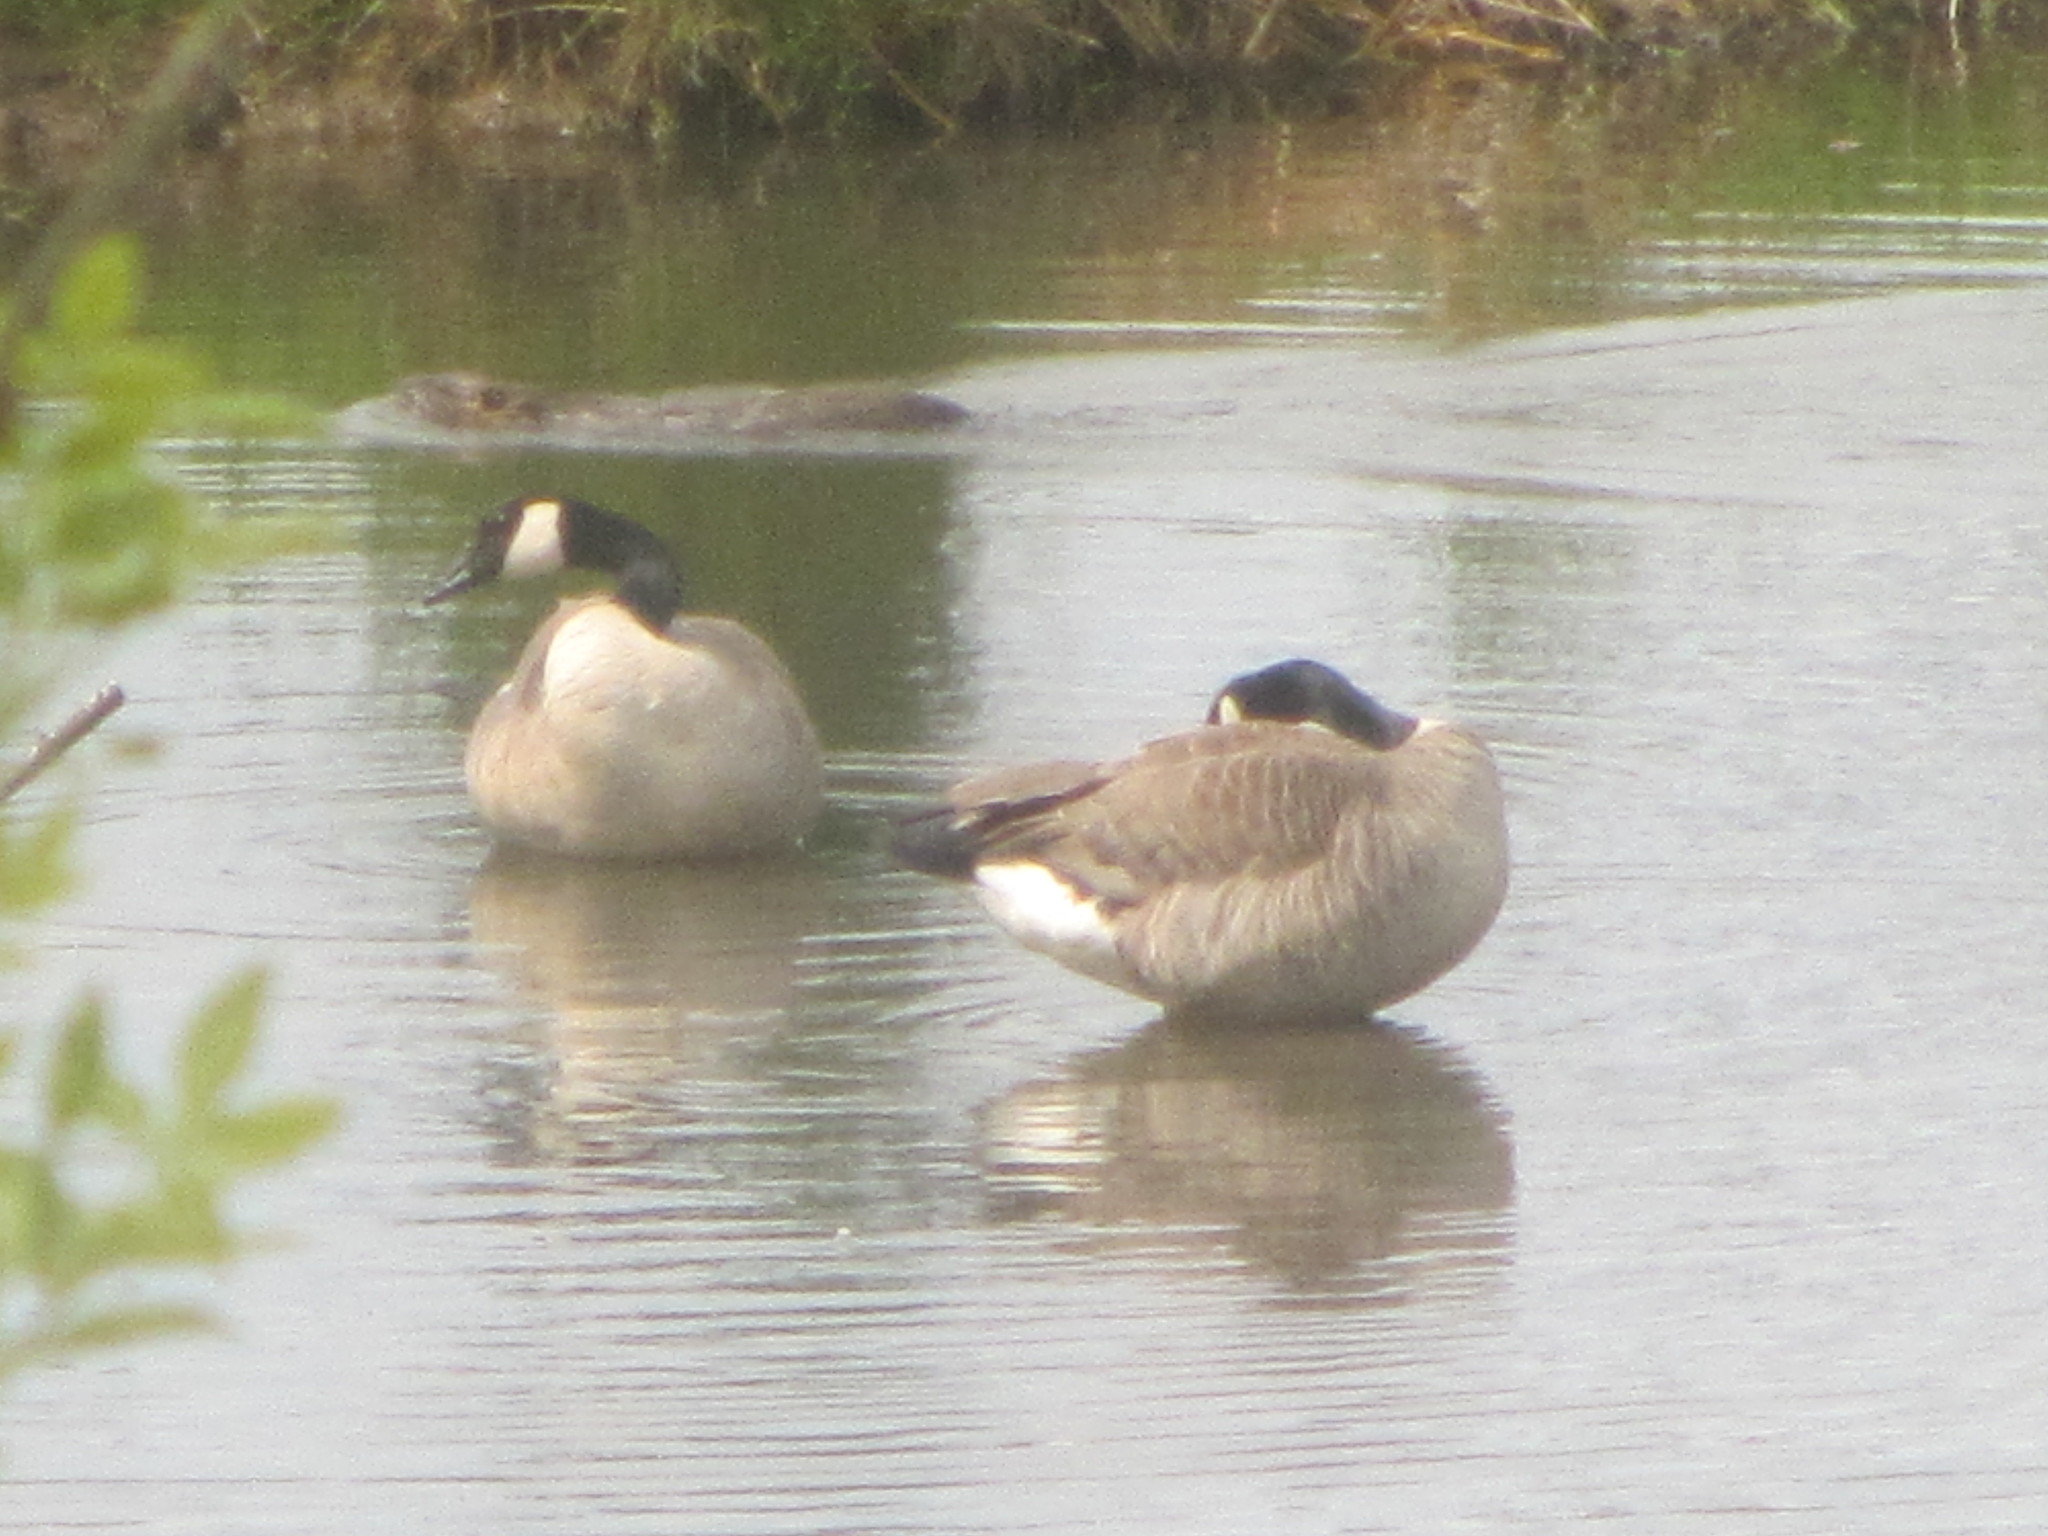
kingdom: Animalia
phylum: Chordata
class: Aves
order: Anseriformes
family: Anatidae
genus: Branta
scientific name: Branta canadensis
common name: Canada goose
